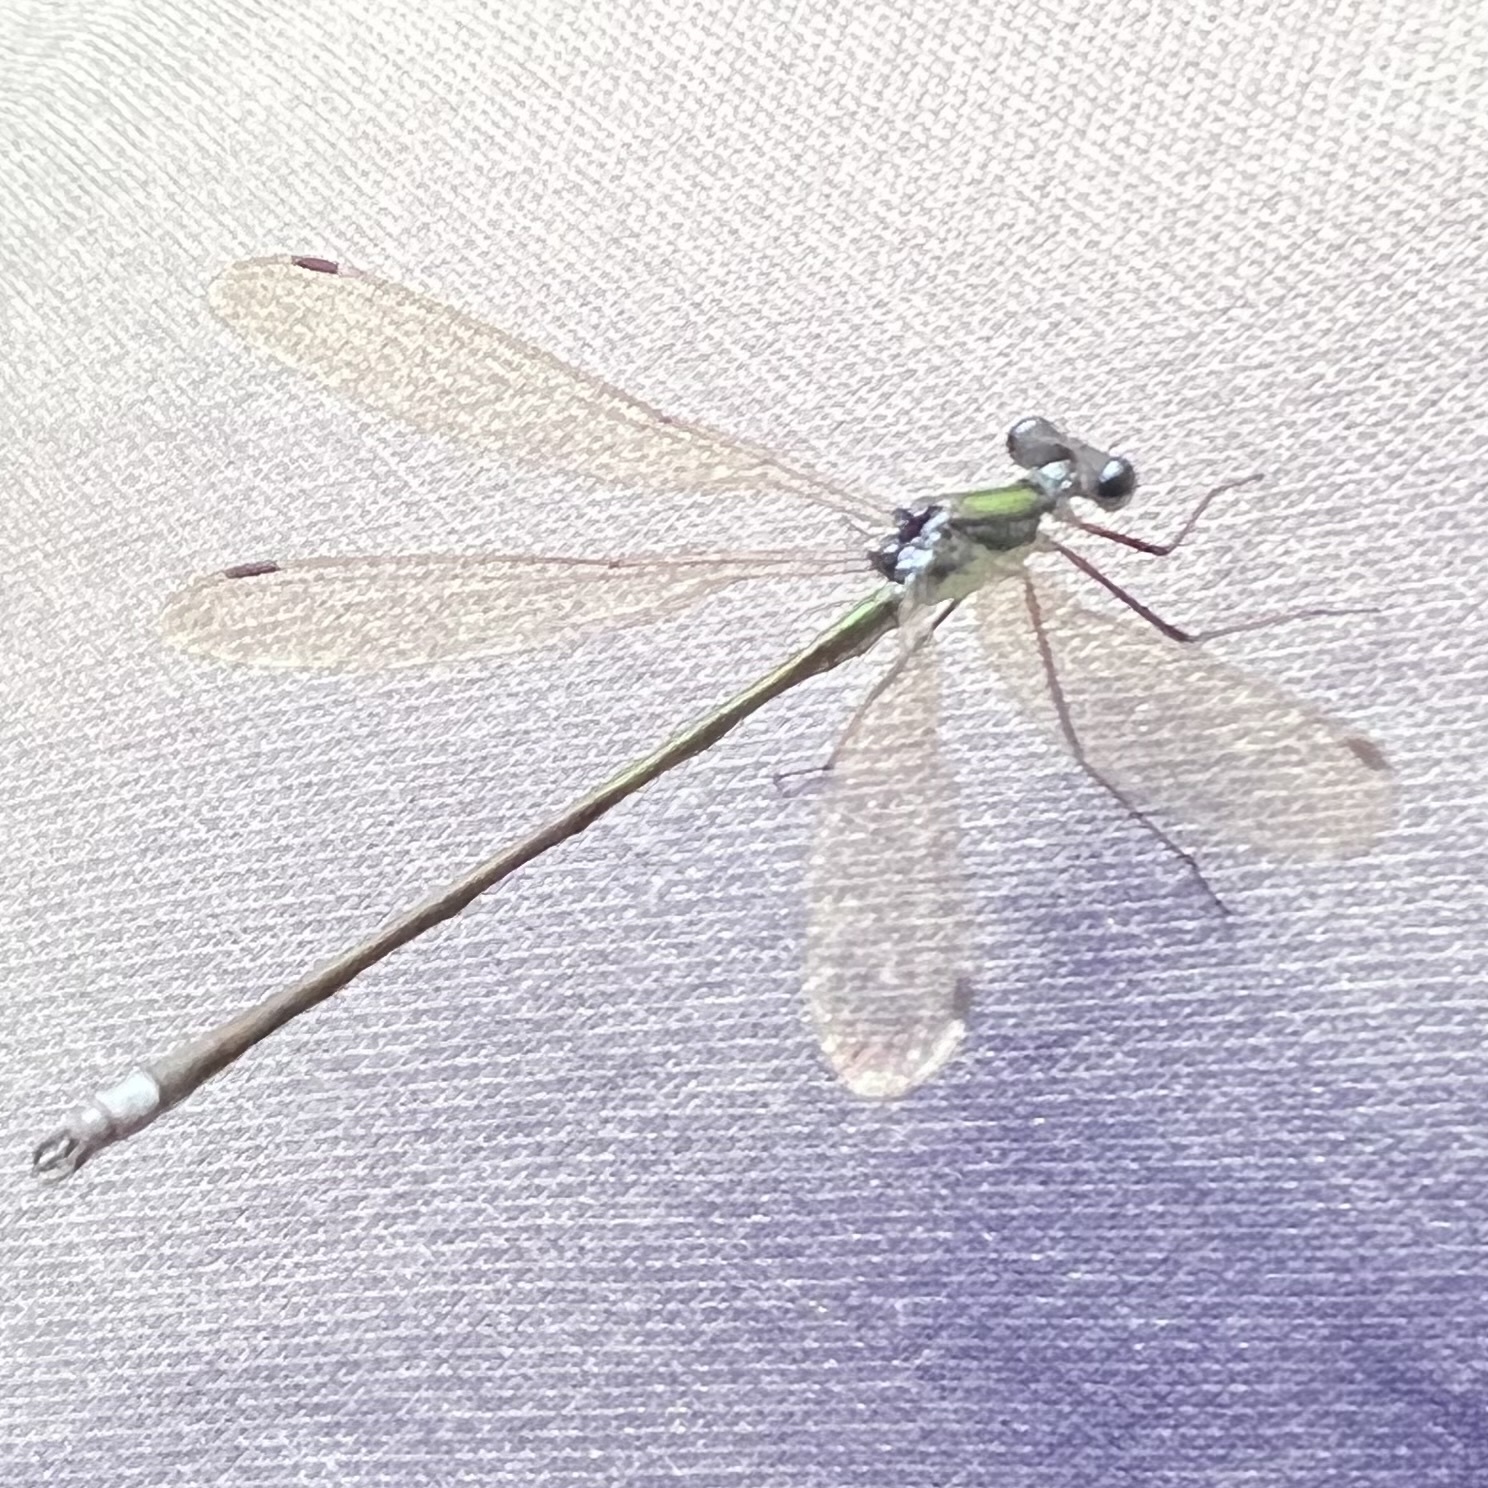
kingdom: Animalia
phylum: Arthropoda
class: Insecta
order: Odonata
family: Lestidae
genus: Lestes
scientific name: Lestes inaequalis
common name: Elegant spreadwing
